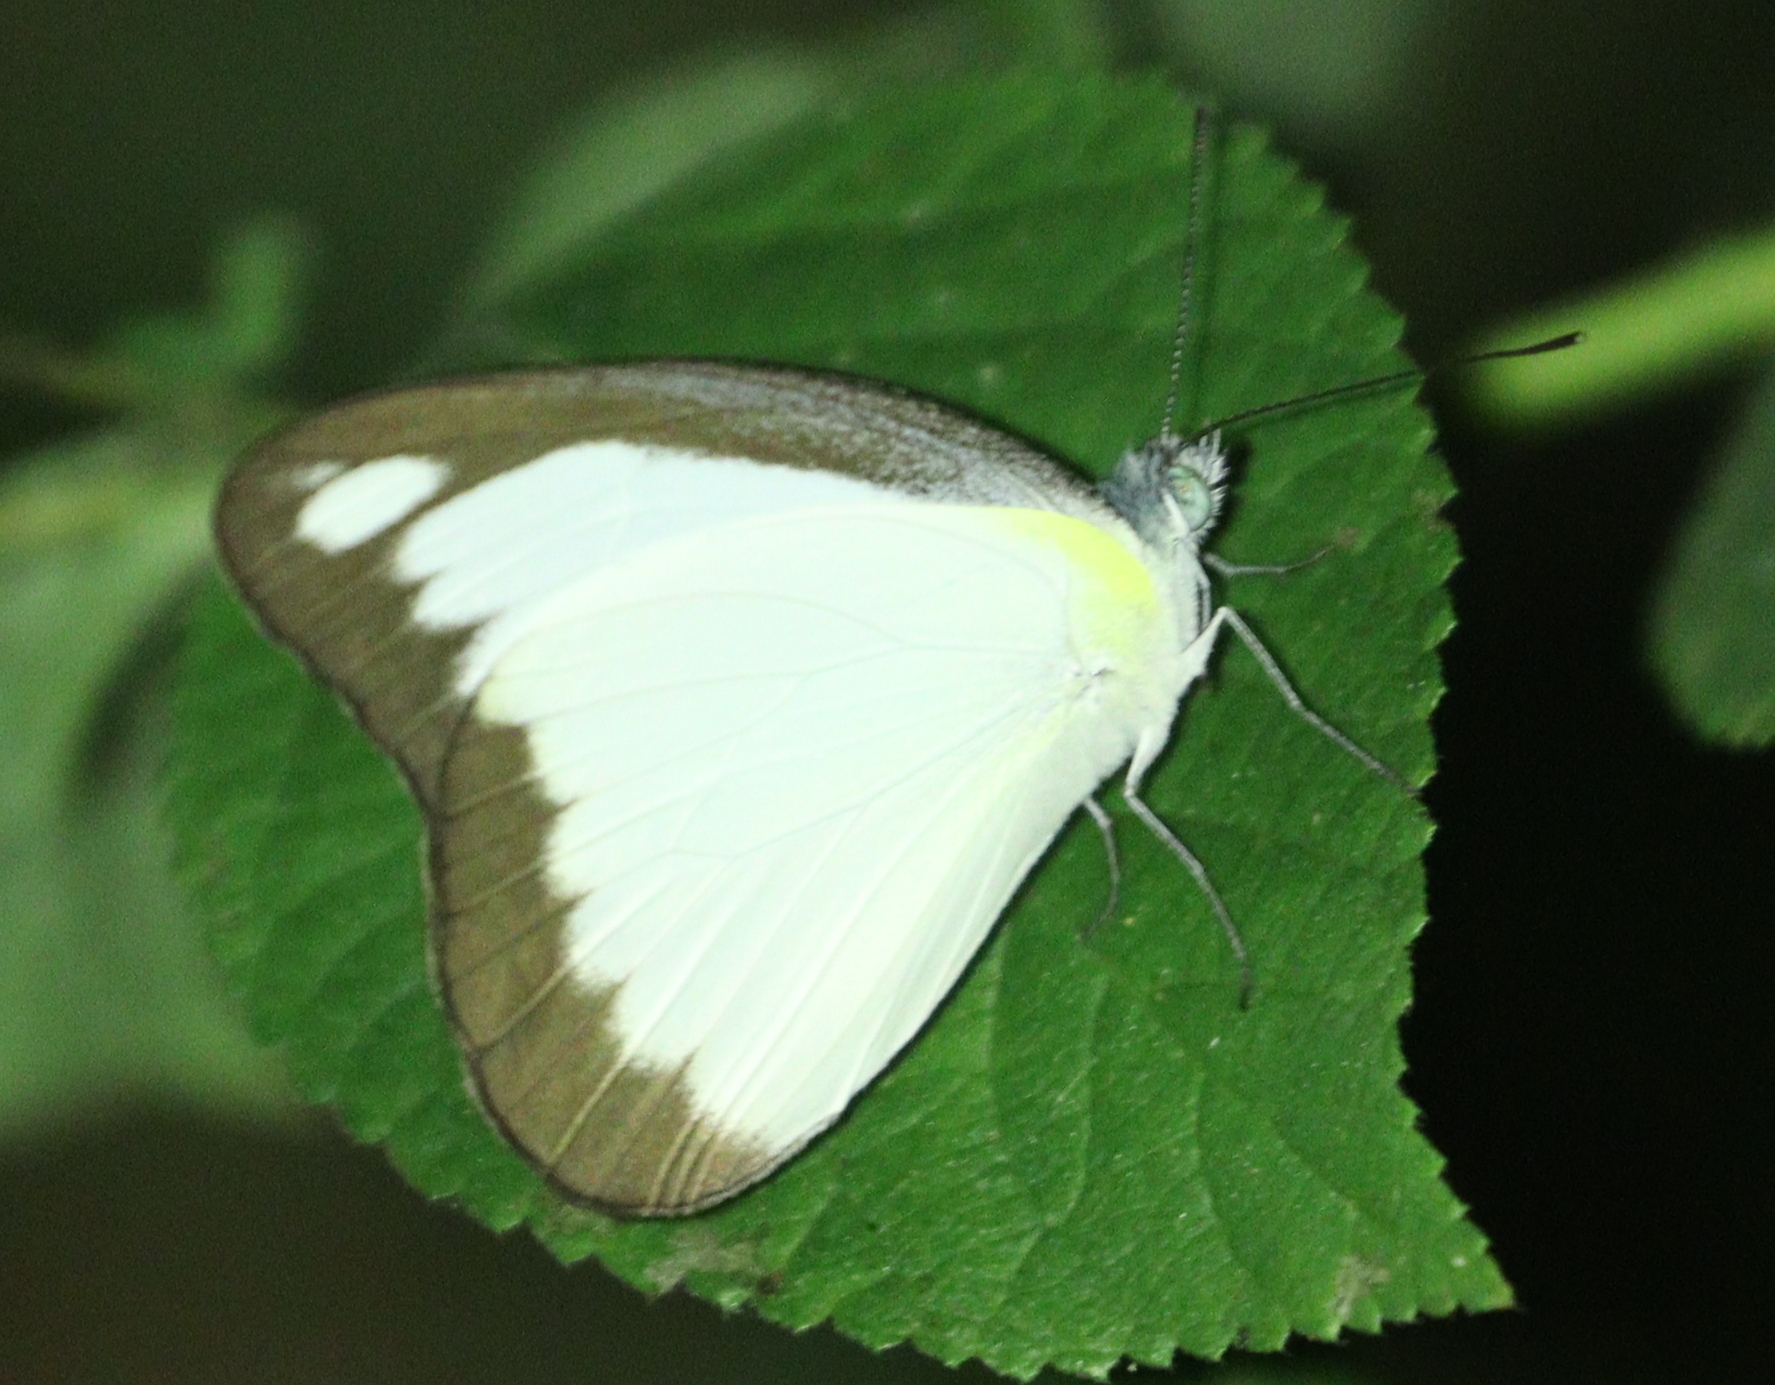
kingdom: Animalia
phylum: Arthropoda
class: Insecta
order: Lepidoptera
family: Pieridae
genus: Appias
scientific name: Appias lyncida
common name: Chocolate albatross
